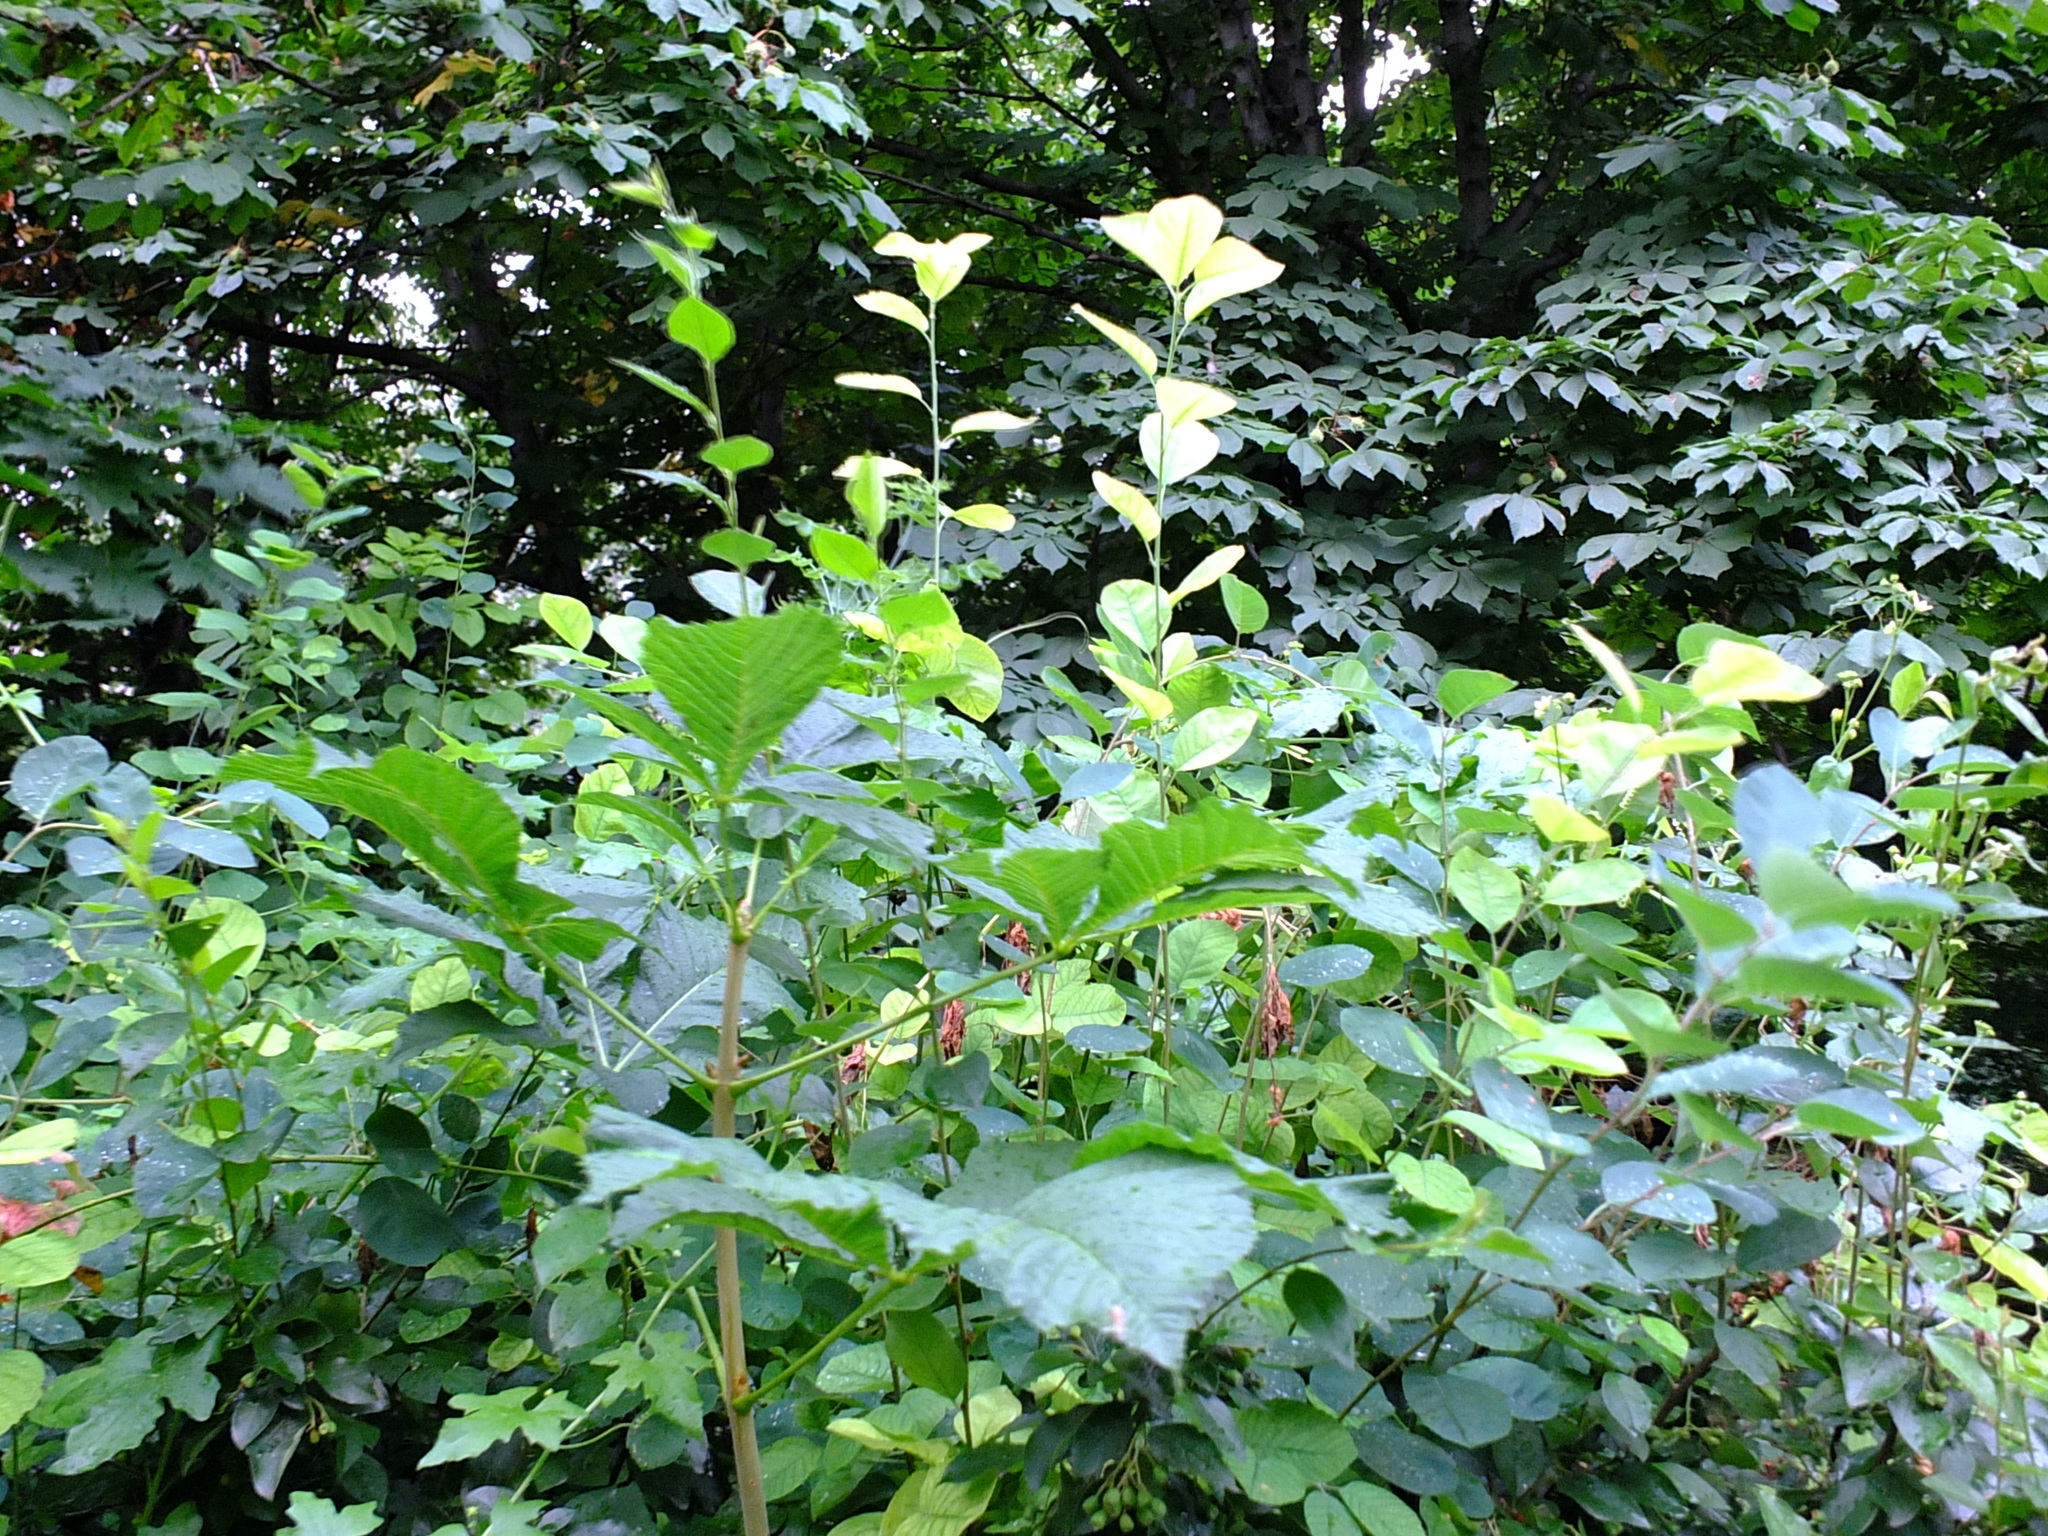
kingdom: Plantae
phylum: Tracheophyta
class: Magnoliopsida
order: Sapindales
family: Sapindaceae
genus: Aesculus
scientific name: Aesculus hippocastanum
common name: Horse-chestnut
